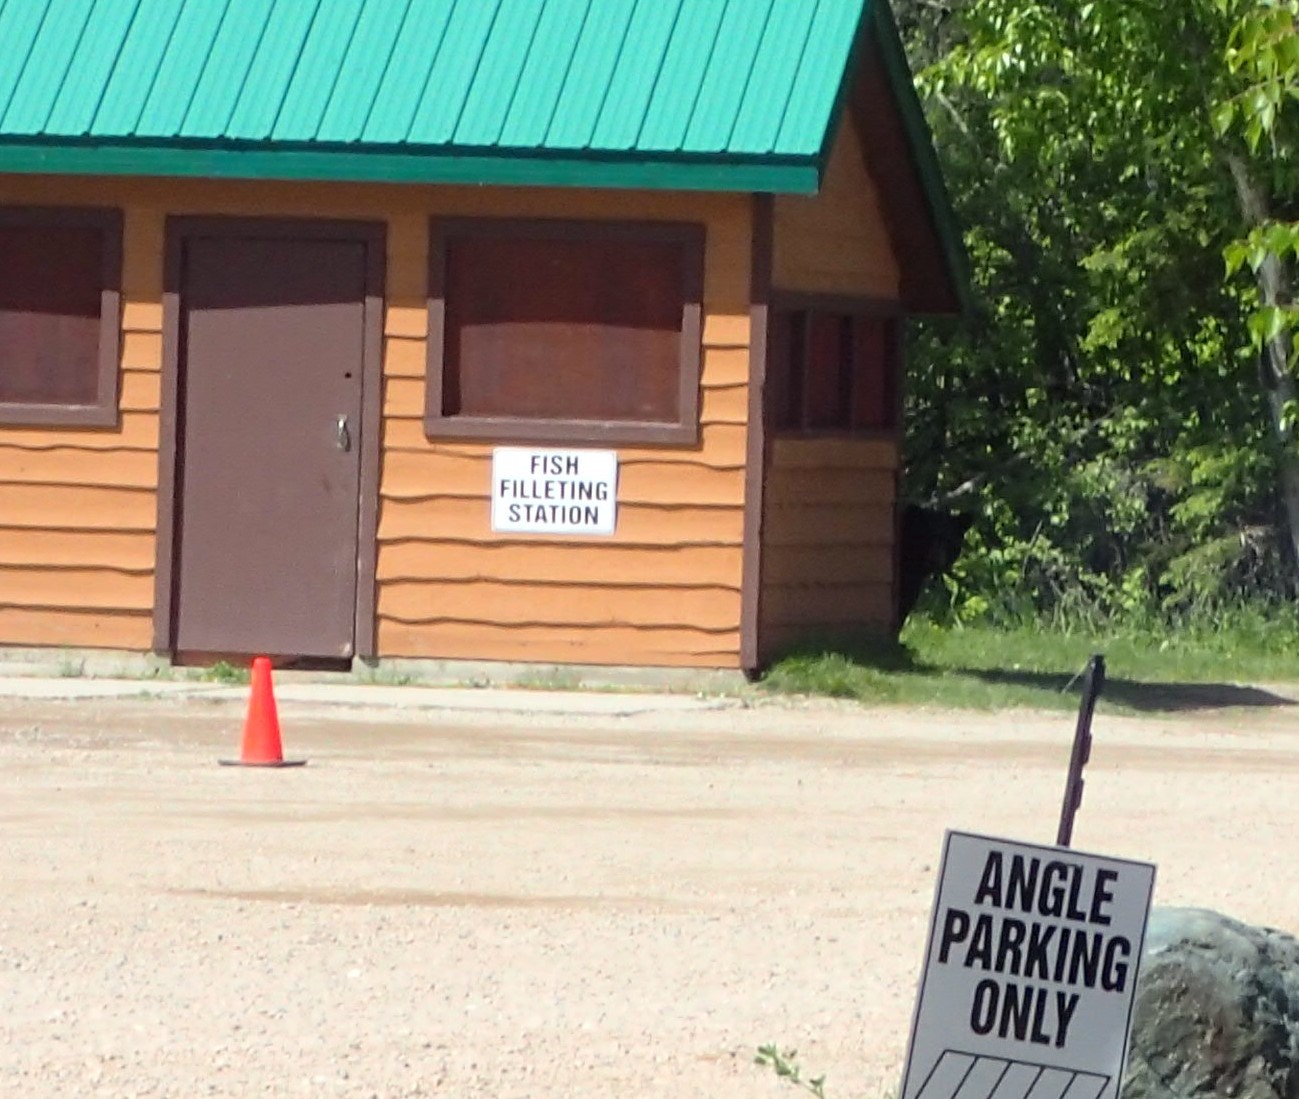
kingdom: Animalia
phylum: Chordata
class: Mammalia
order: Carnivora
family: Ursidae
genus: Ursus
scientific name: Ursus americanus
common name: American black bear
